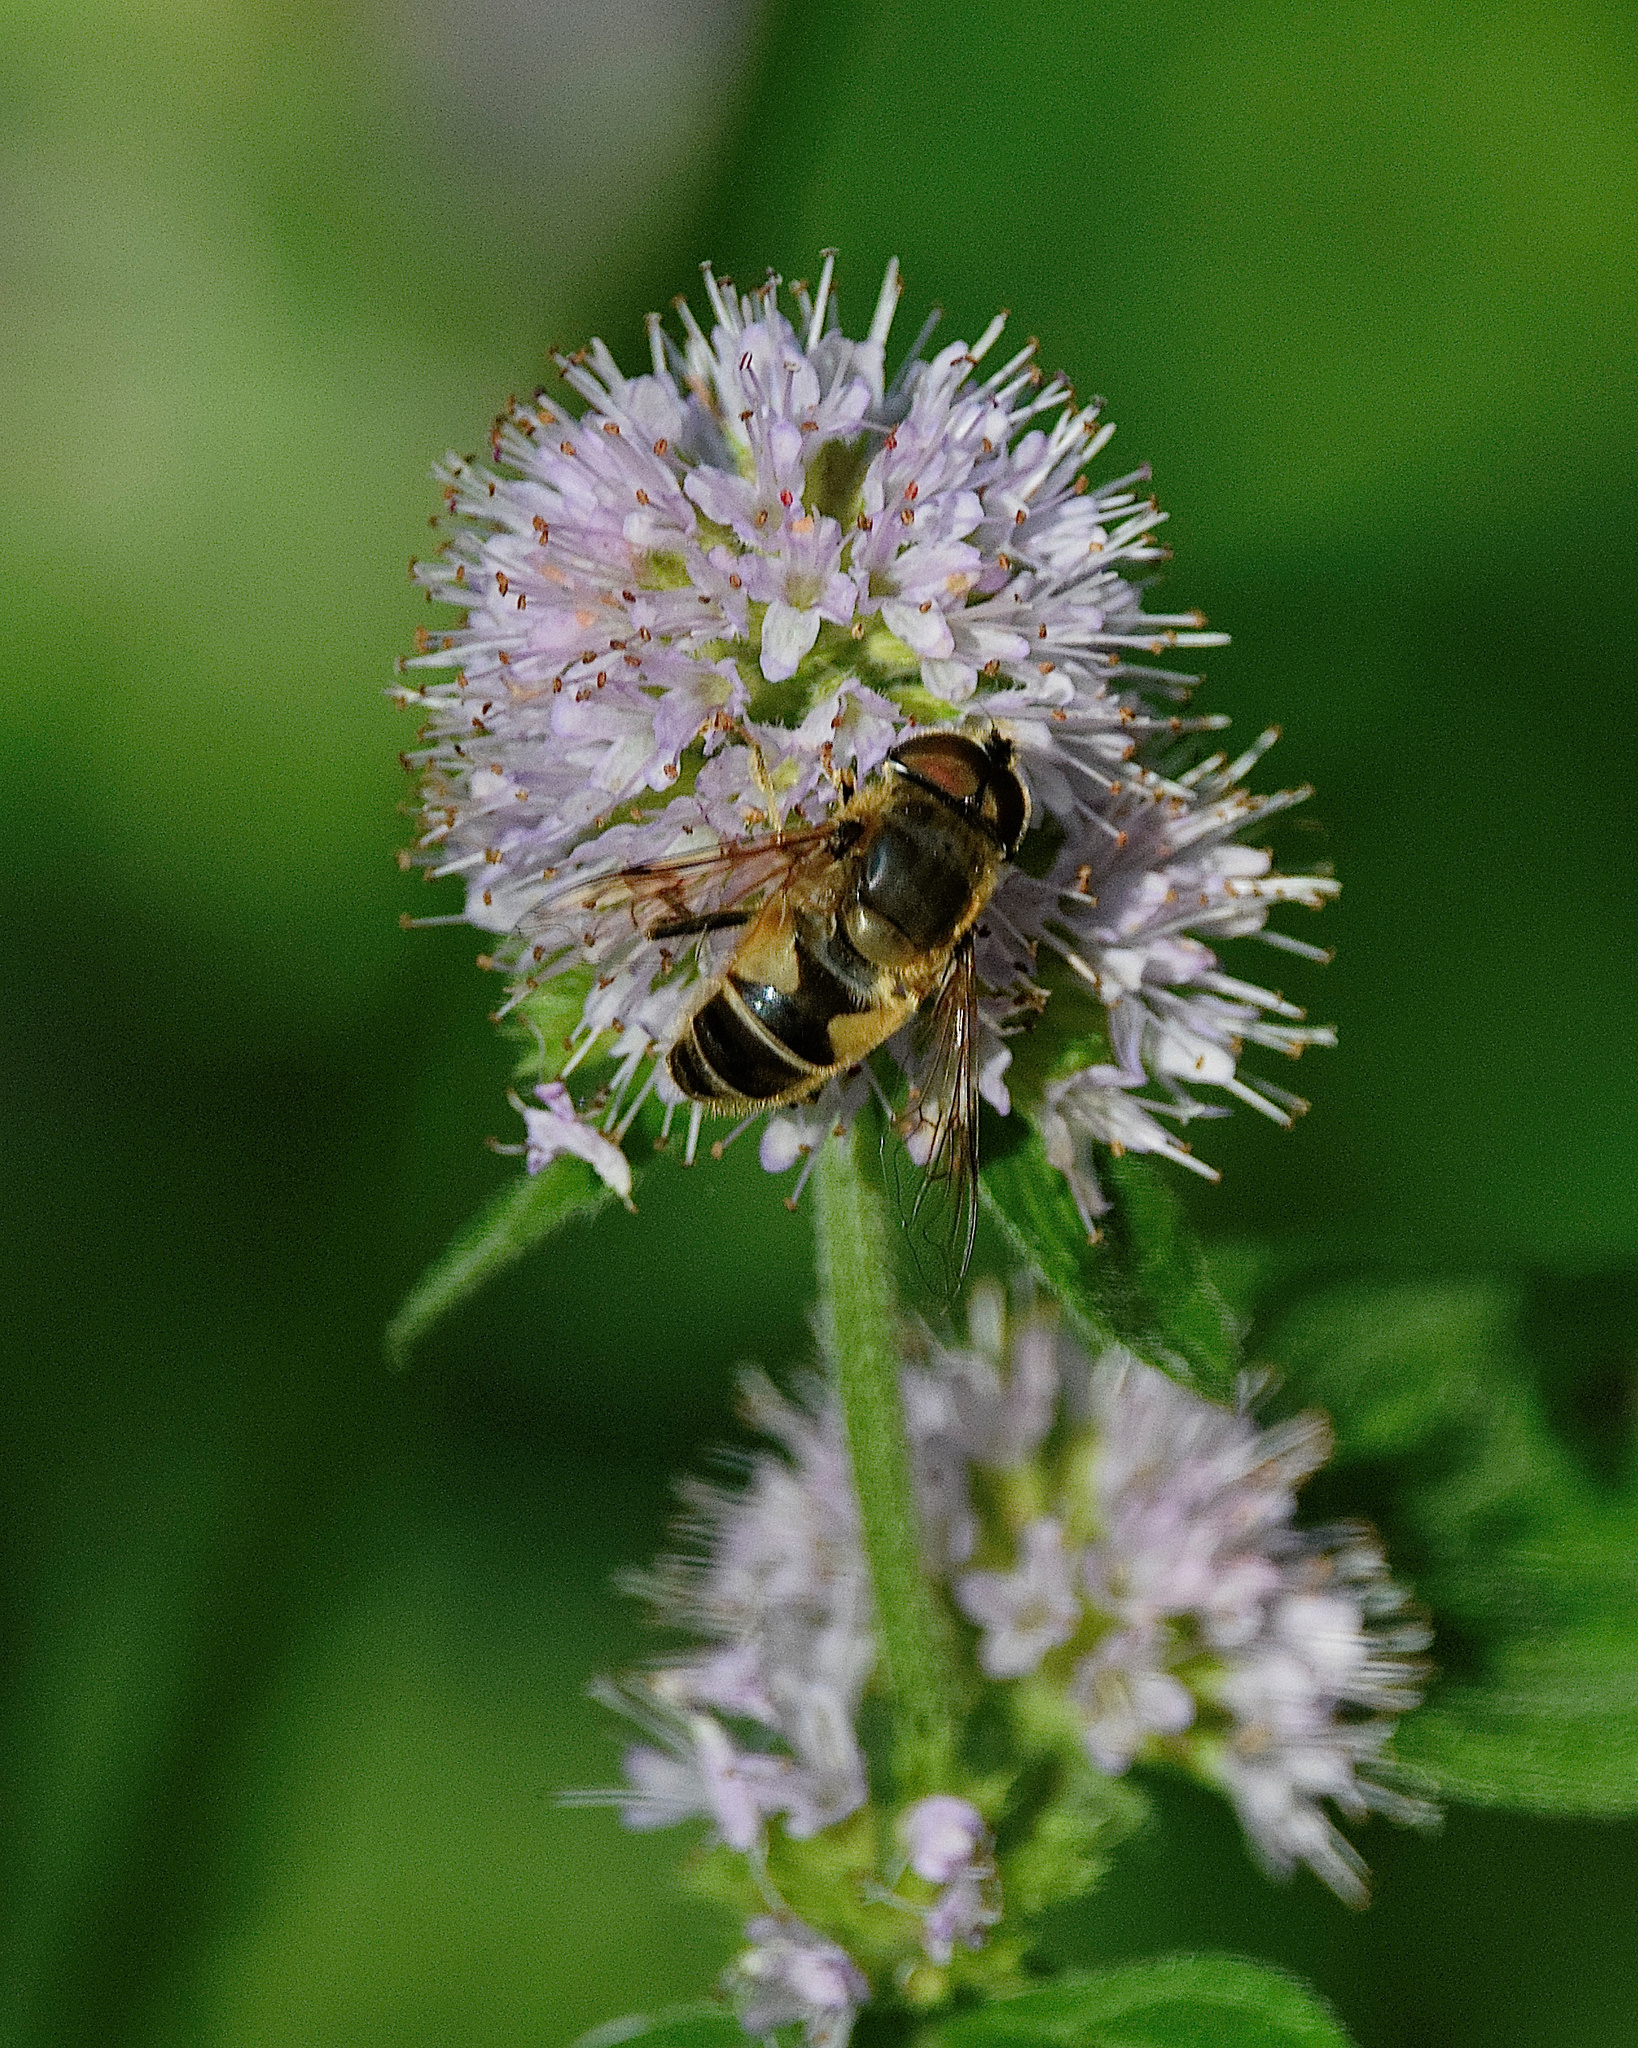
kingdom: Animalia
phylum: Arthropoda
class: Insecta
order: Diptera
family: Syrphidae
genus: Eristalis
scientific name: Eristalis tenax
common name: Drone fly
